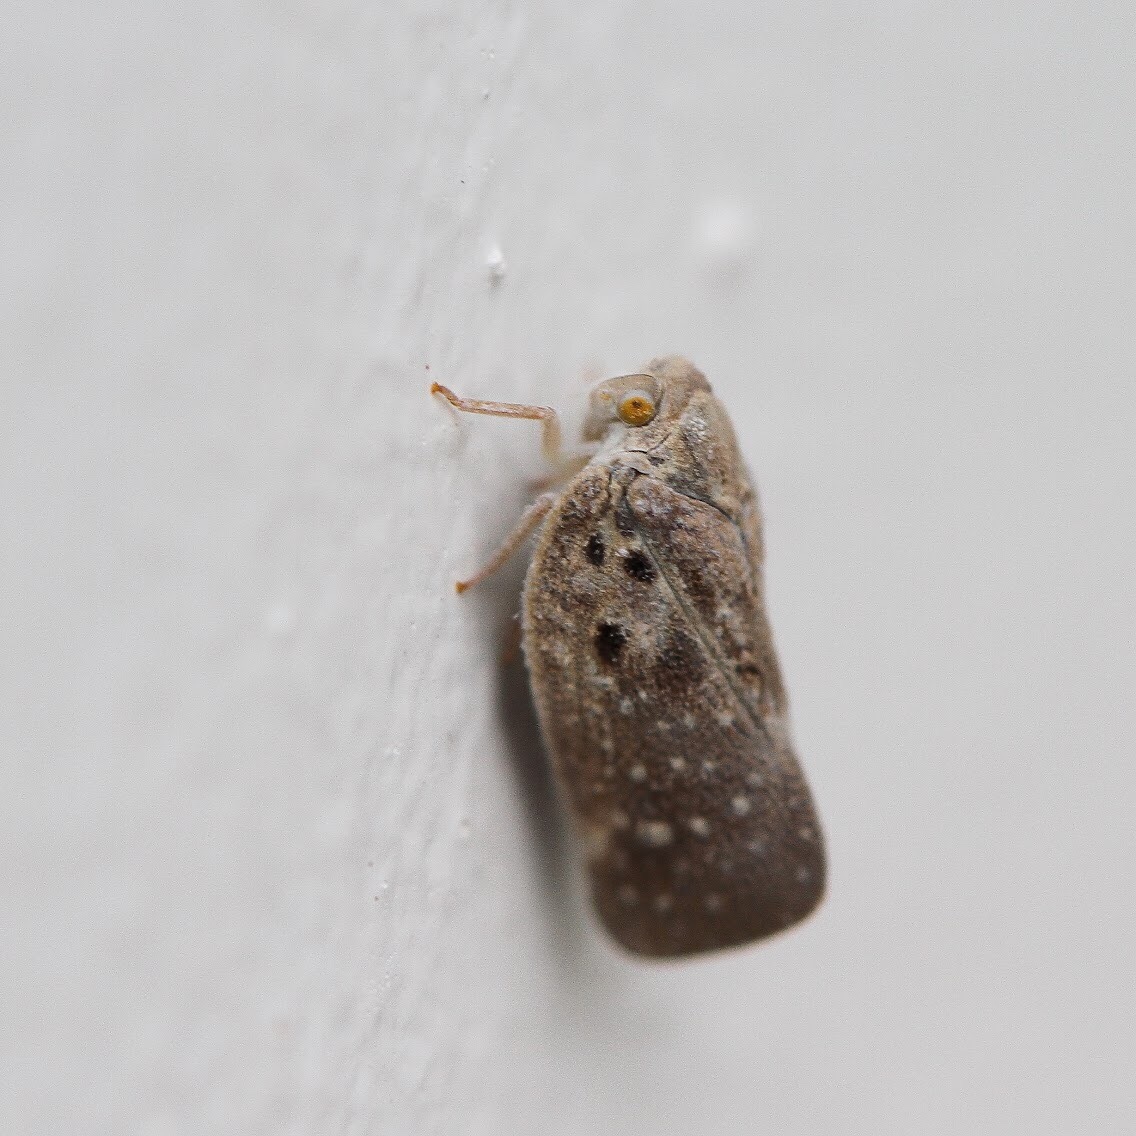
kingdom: Animalia
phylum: Arthropoda
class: Insecta
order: Hemiptera
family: Flatidae
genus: Metcalfa
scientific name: Metcalfa pruinosa
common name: Citrus flatid planthopper
